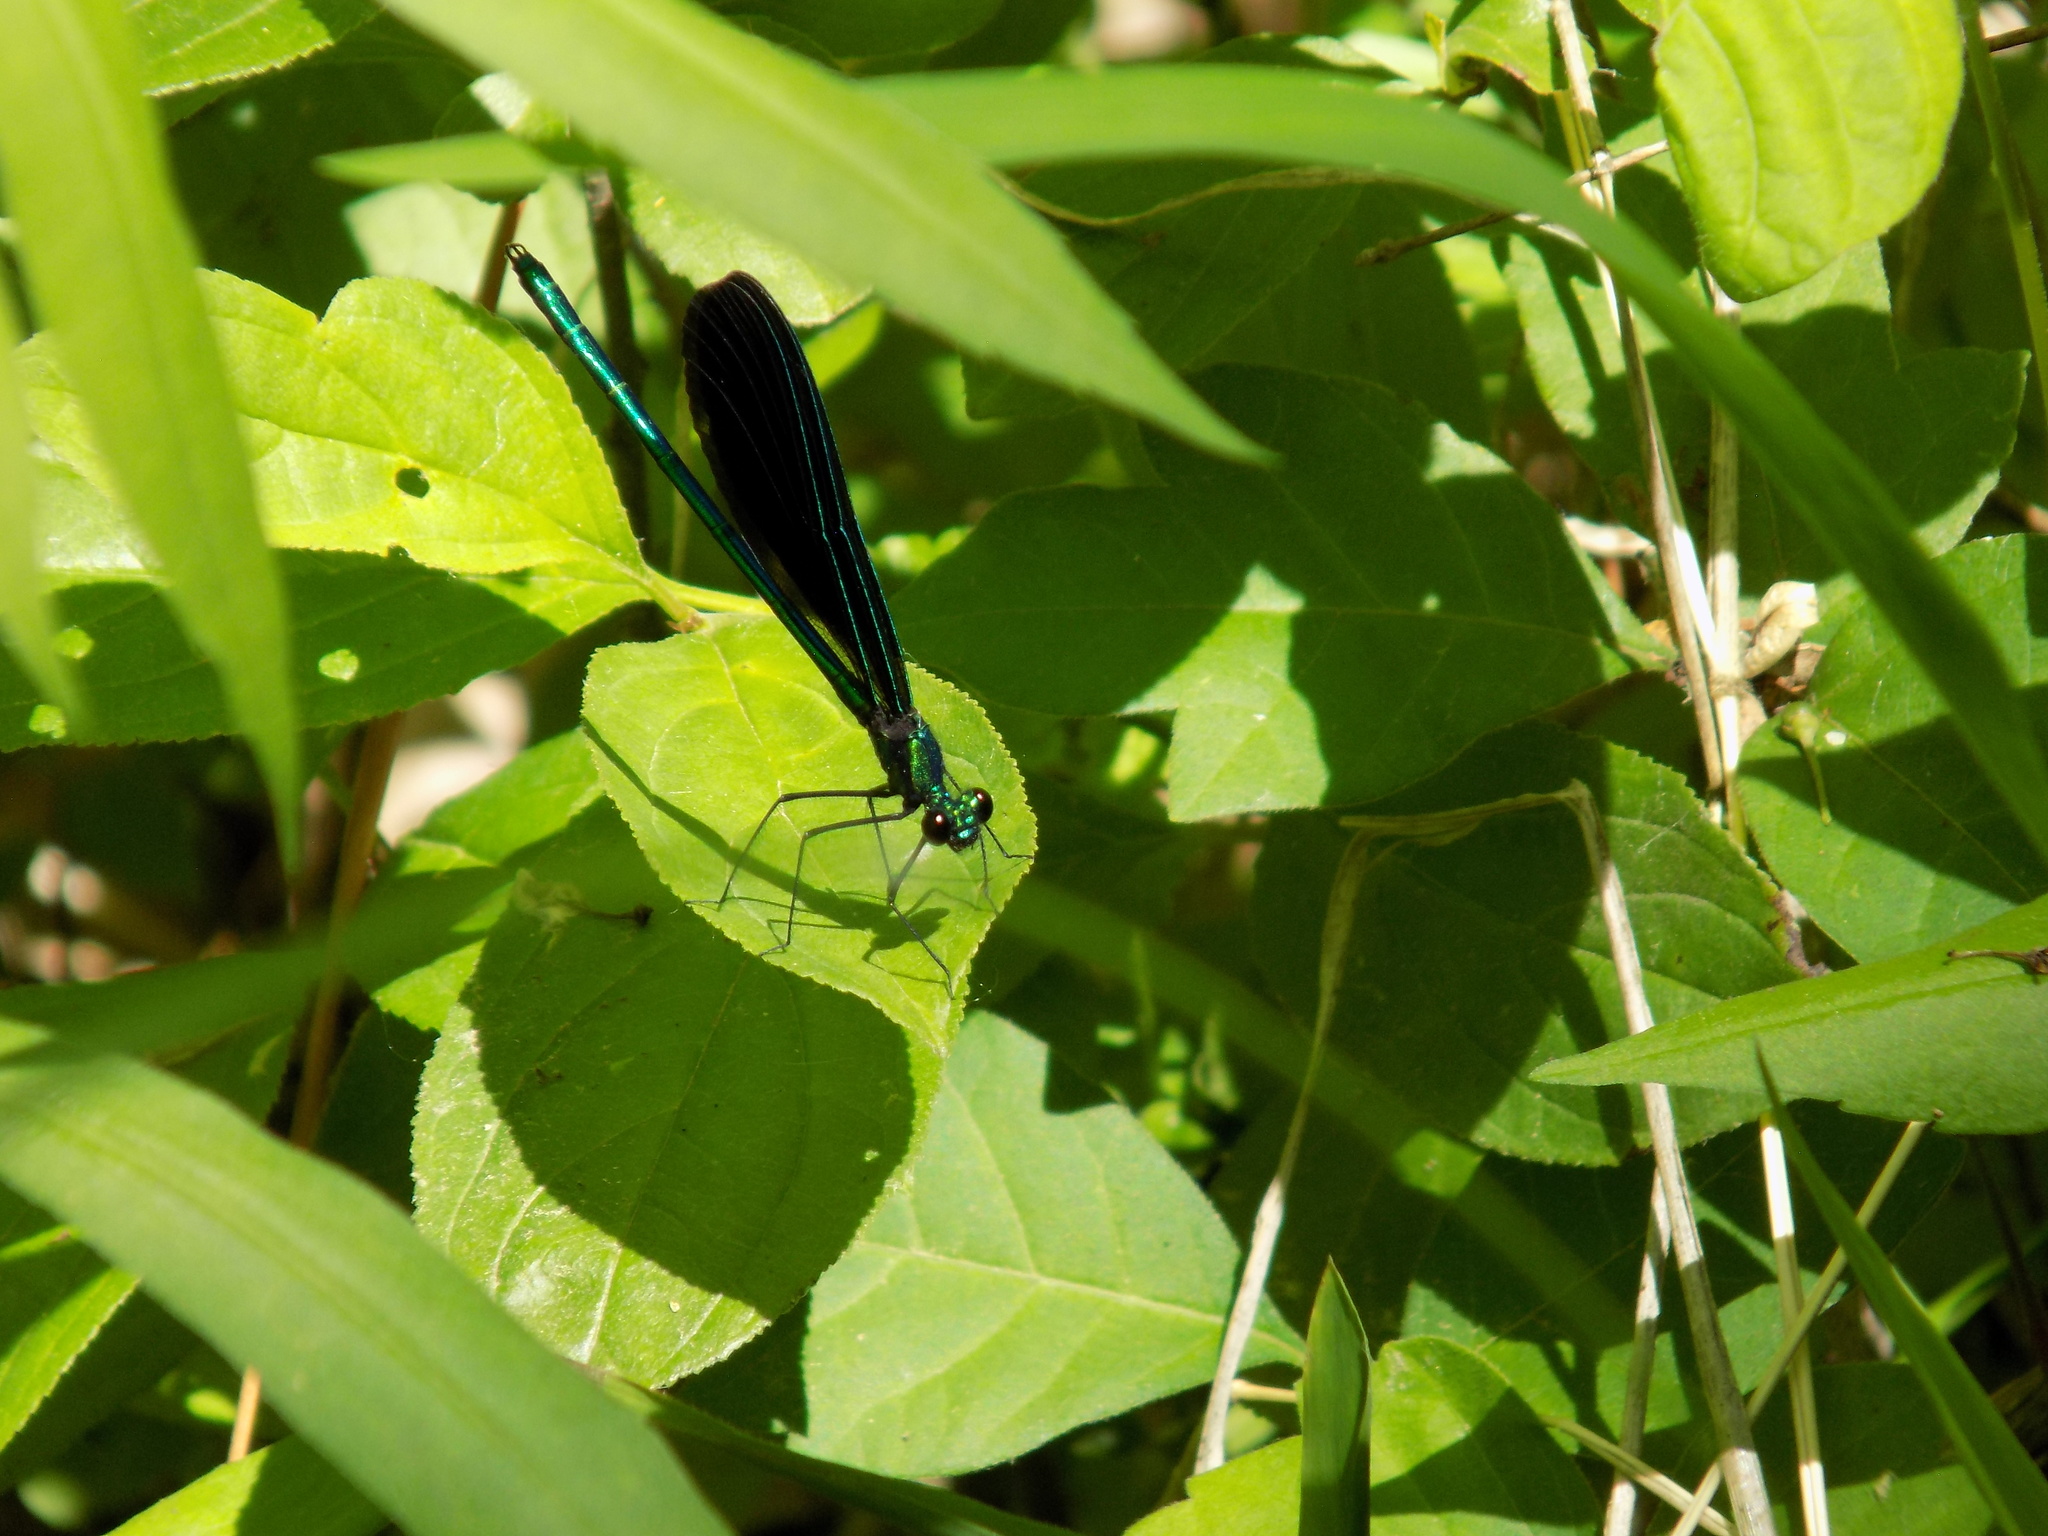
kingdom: Animalia
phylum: Arthropoda
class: Insecta
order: Odonata
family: Calopterygidae
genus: Calopteryx
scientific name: Calopteryx maculata
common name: Ebony jewelwing
